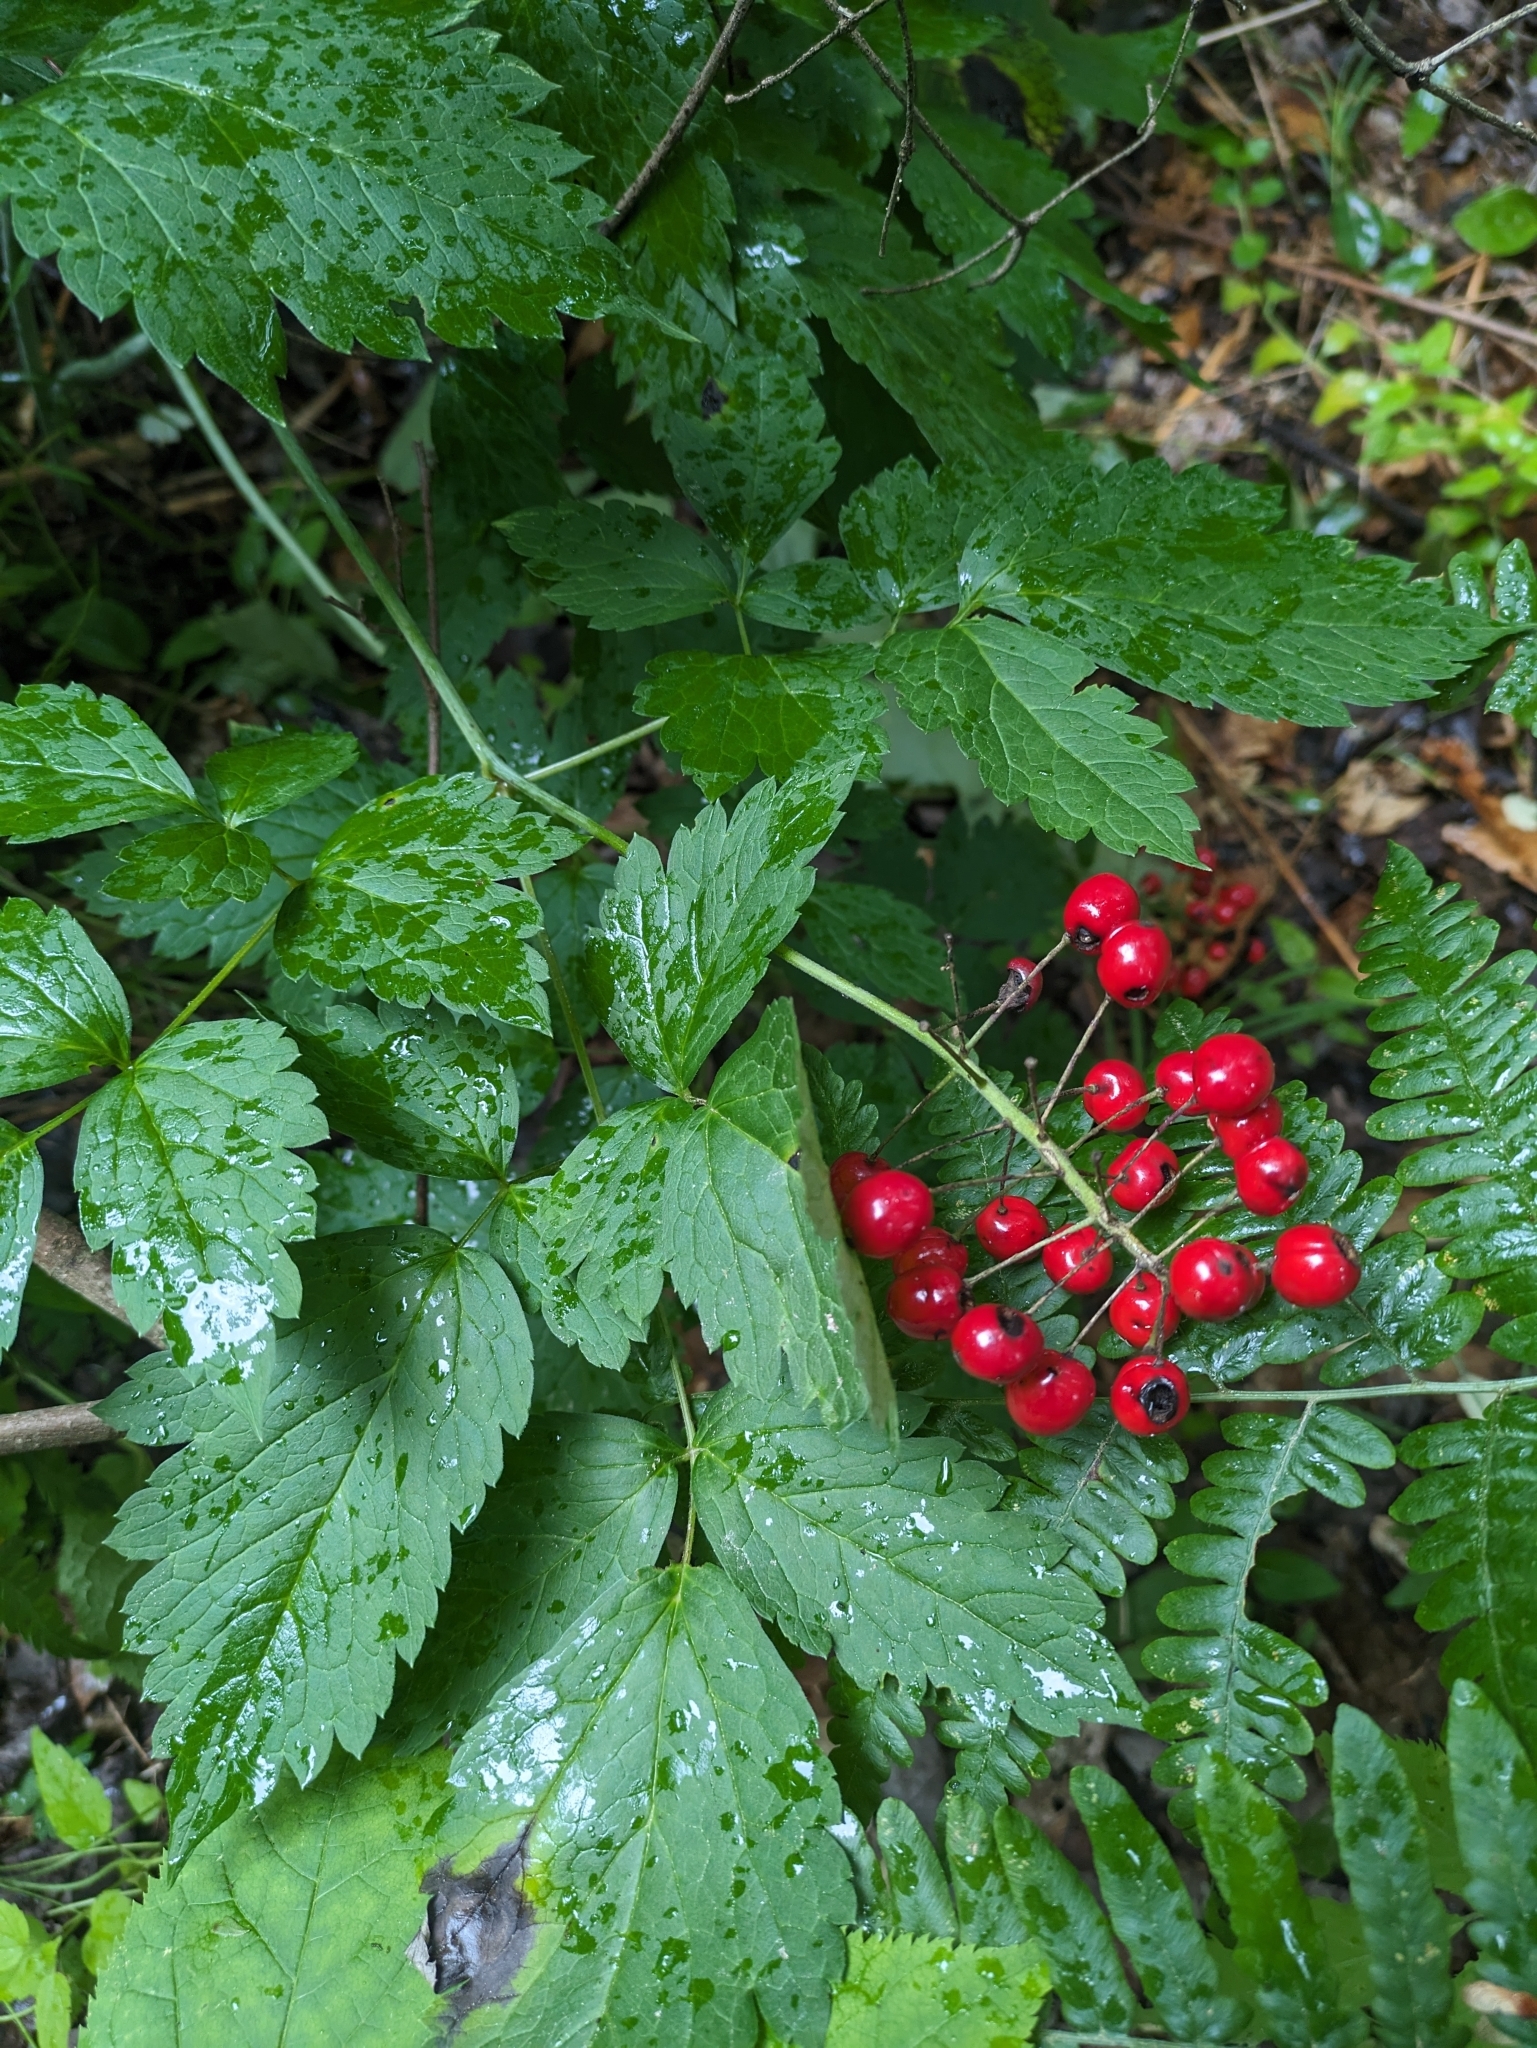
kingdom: Plantae
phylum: Tracheophyta
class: Magnoliopsida
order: Ranunculales
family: Ranunculaceae
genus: Actaea
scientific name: Actaea rubra
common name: Red baneberry
